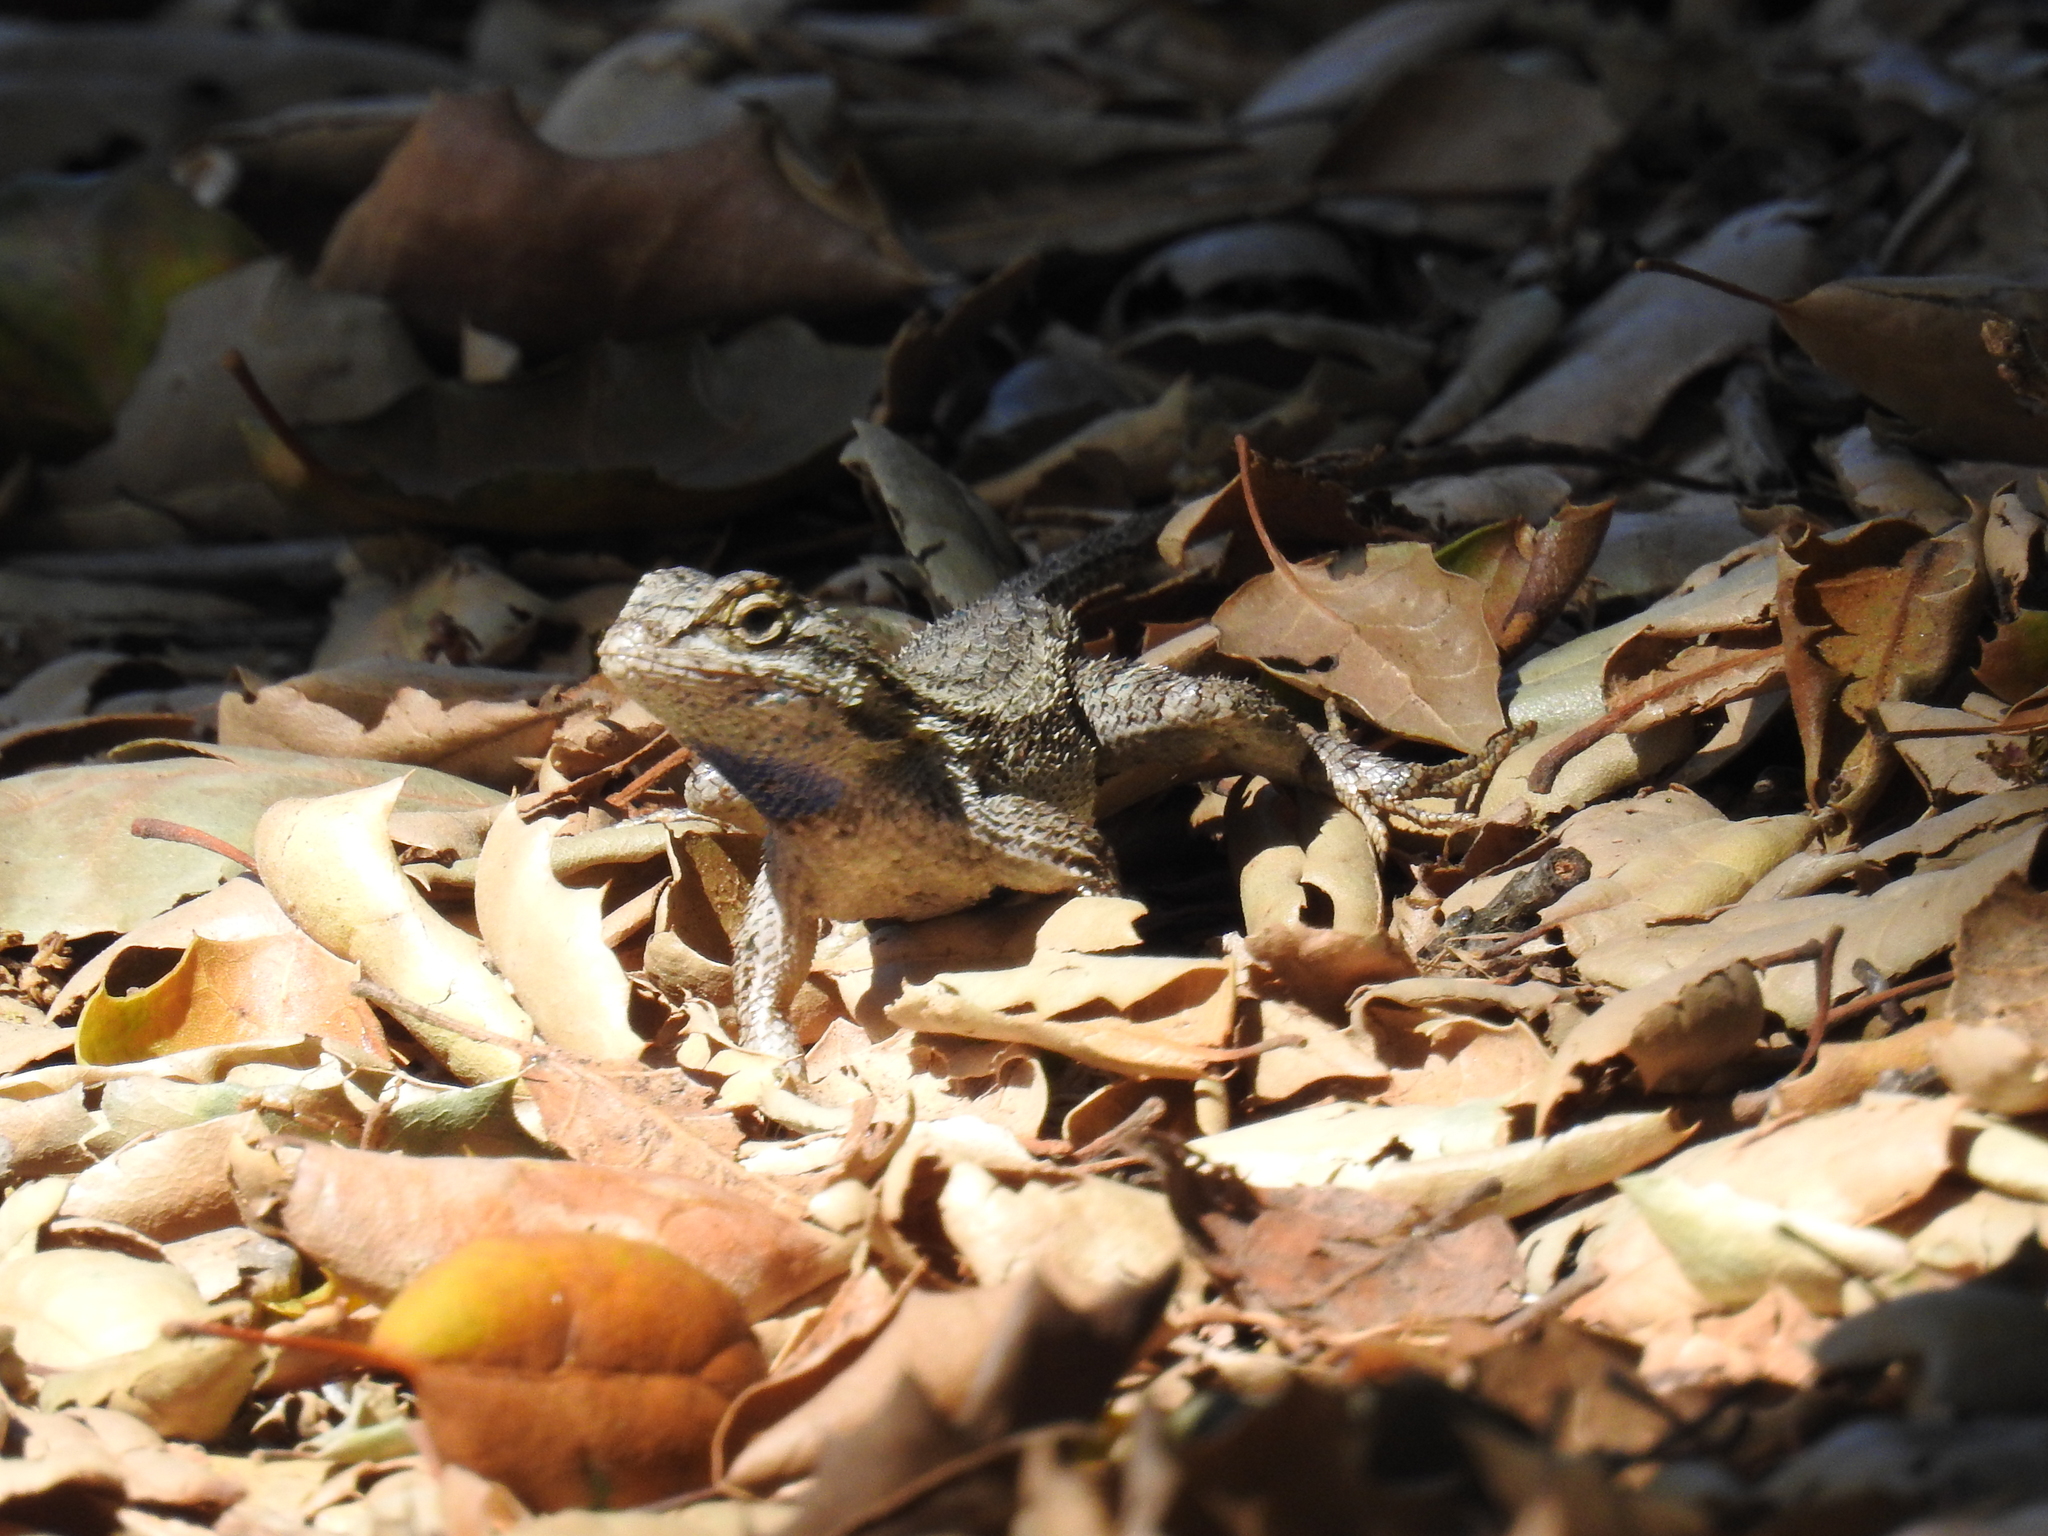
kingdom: Animalia
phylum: Chordata
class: Squamata
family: Phrynosomatidae
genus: Sceloporus
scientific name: Sceloporus occidentalis
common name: Western fence lizard
